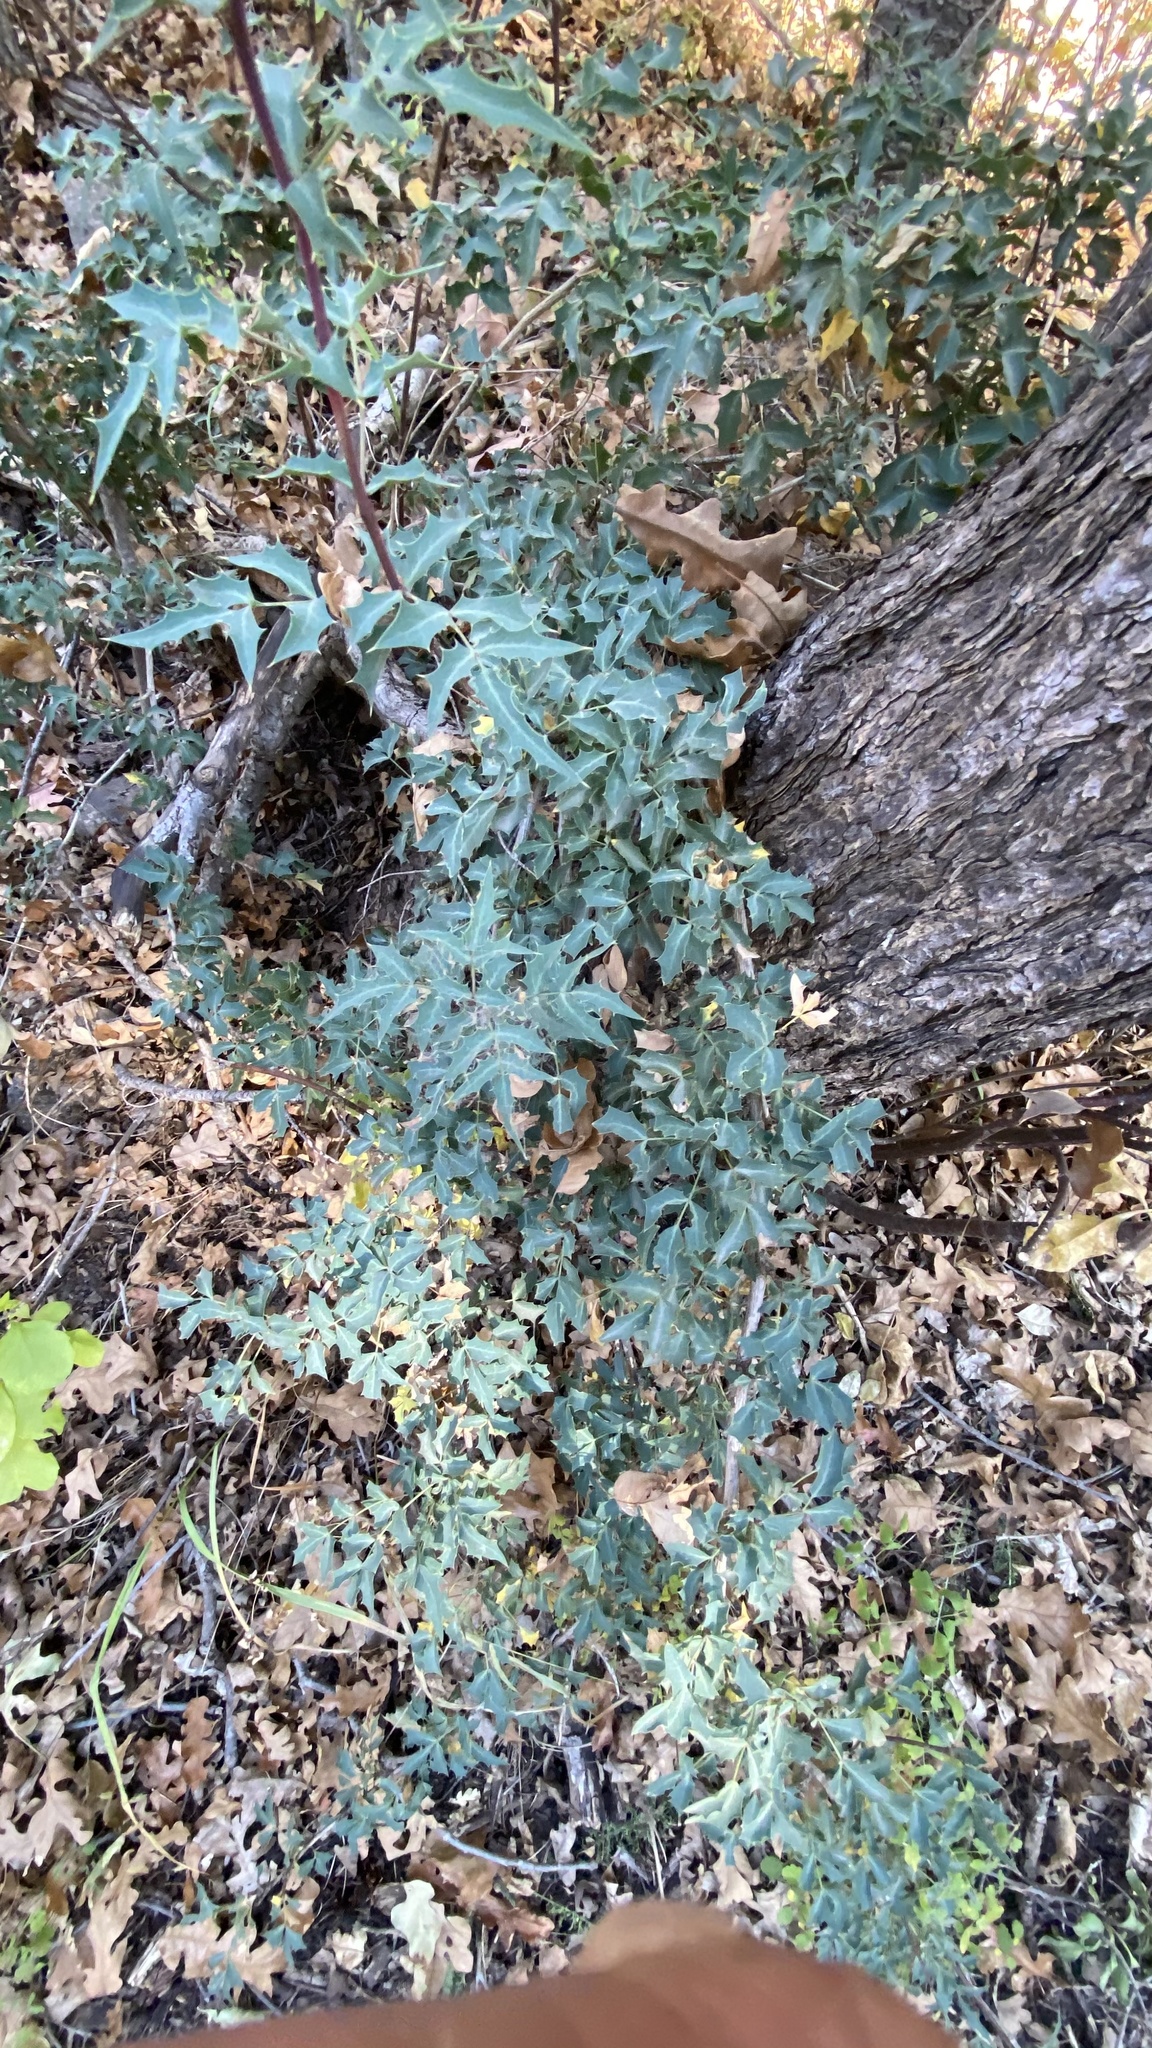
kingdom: Plantae
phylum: Tracheophyta
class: Magnoliopsida
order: Ranunculales
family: Berberidaceae
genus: Alloberberis
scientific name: Alloberberis haematocarpa
